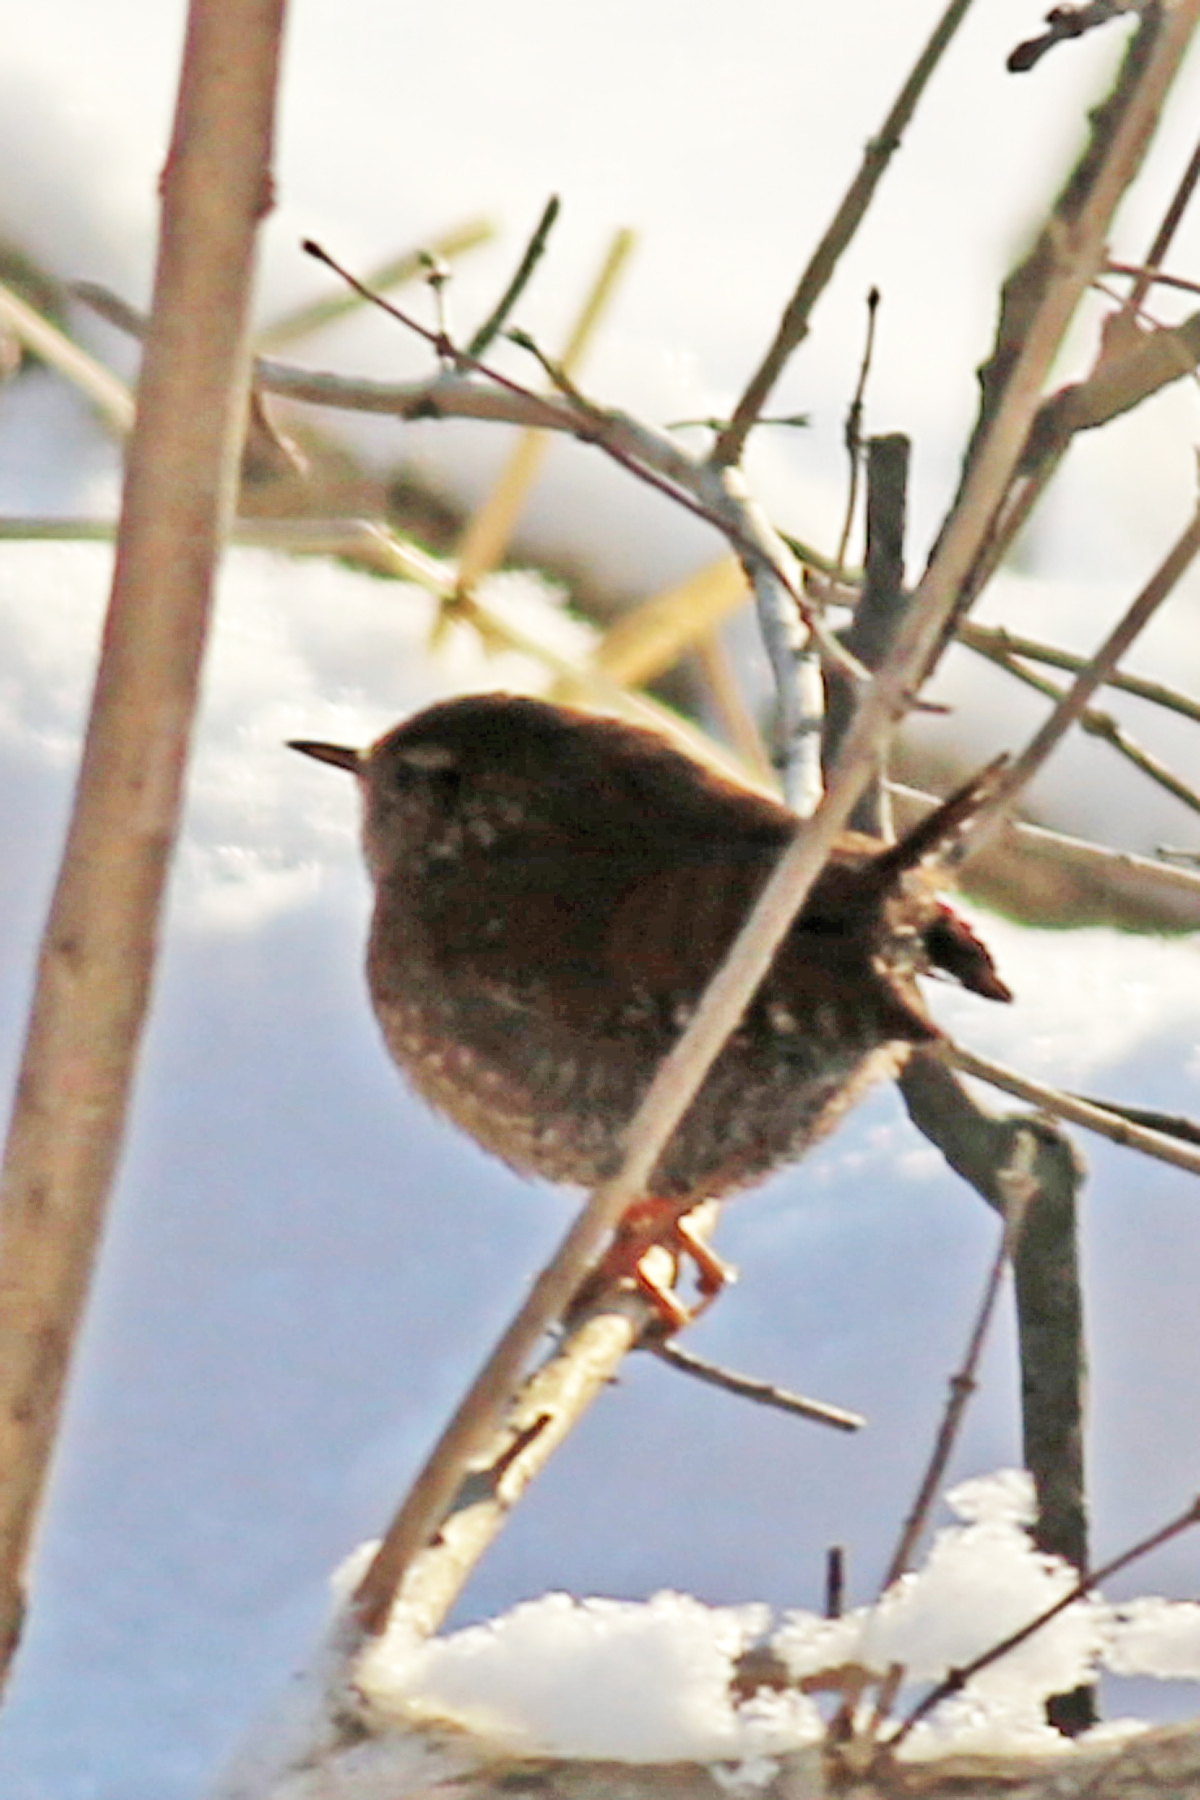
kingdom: Animalia
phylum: Chordata
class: Aves
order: Passeriformes
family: Troglodytidae
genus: Troglodytes
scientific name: Troglodytes hiemalis
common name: Winter wren
